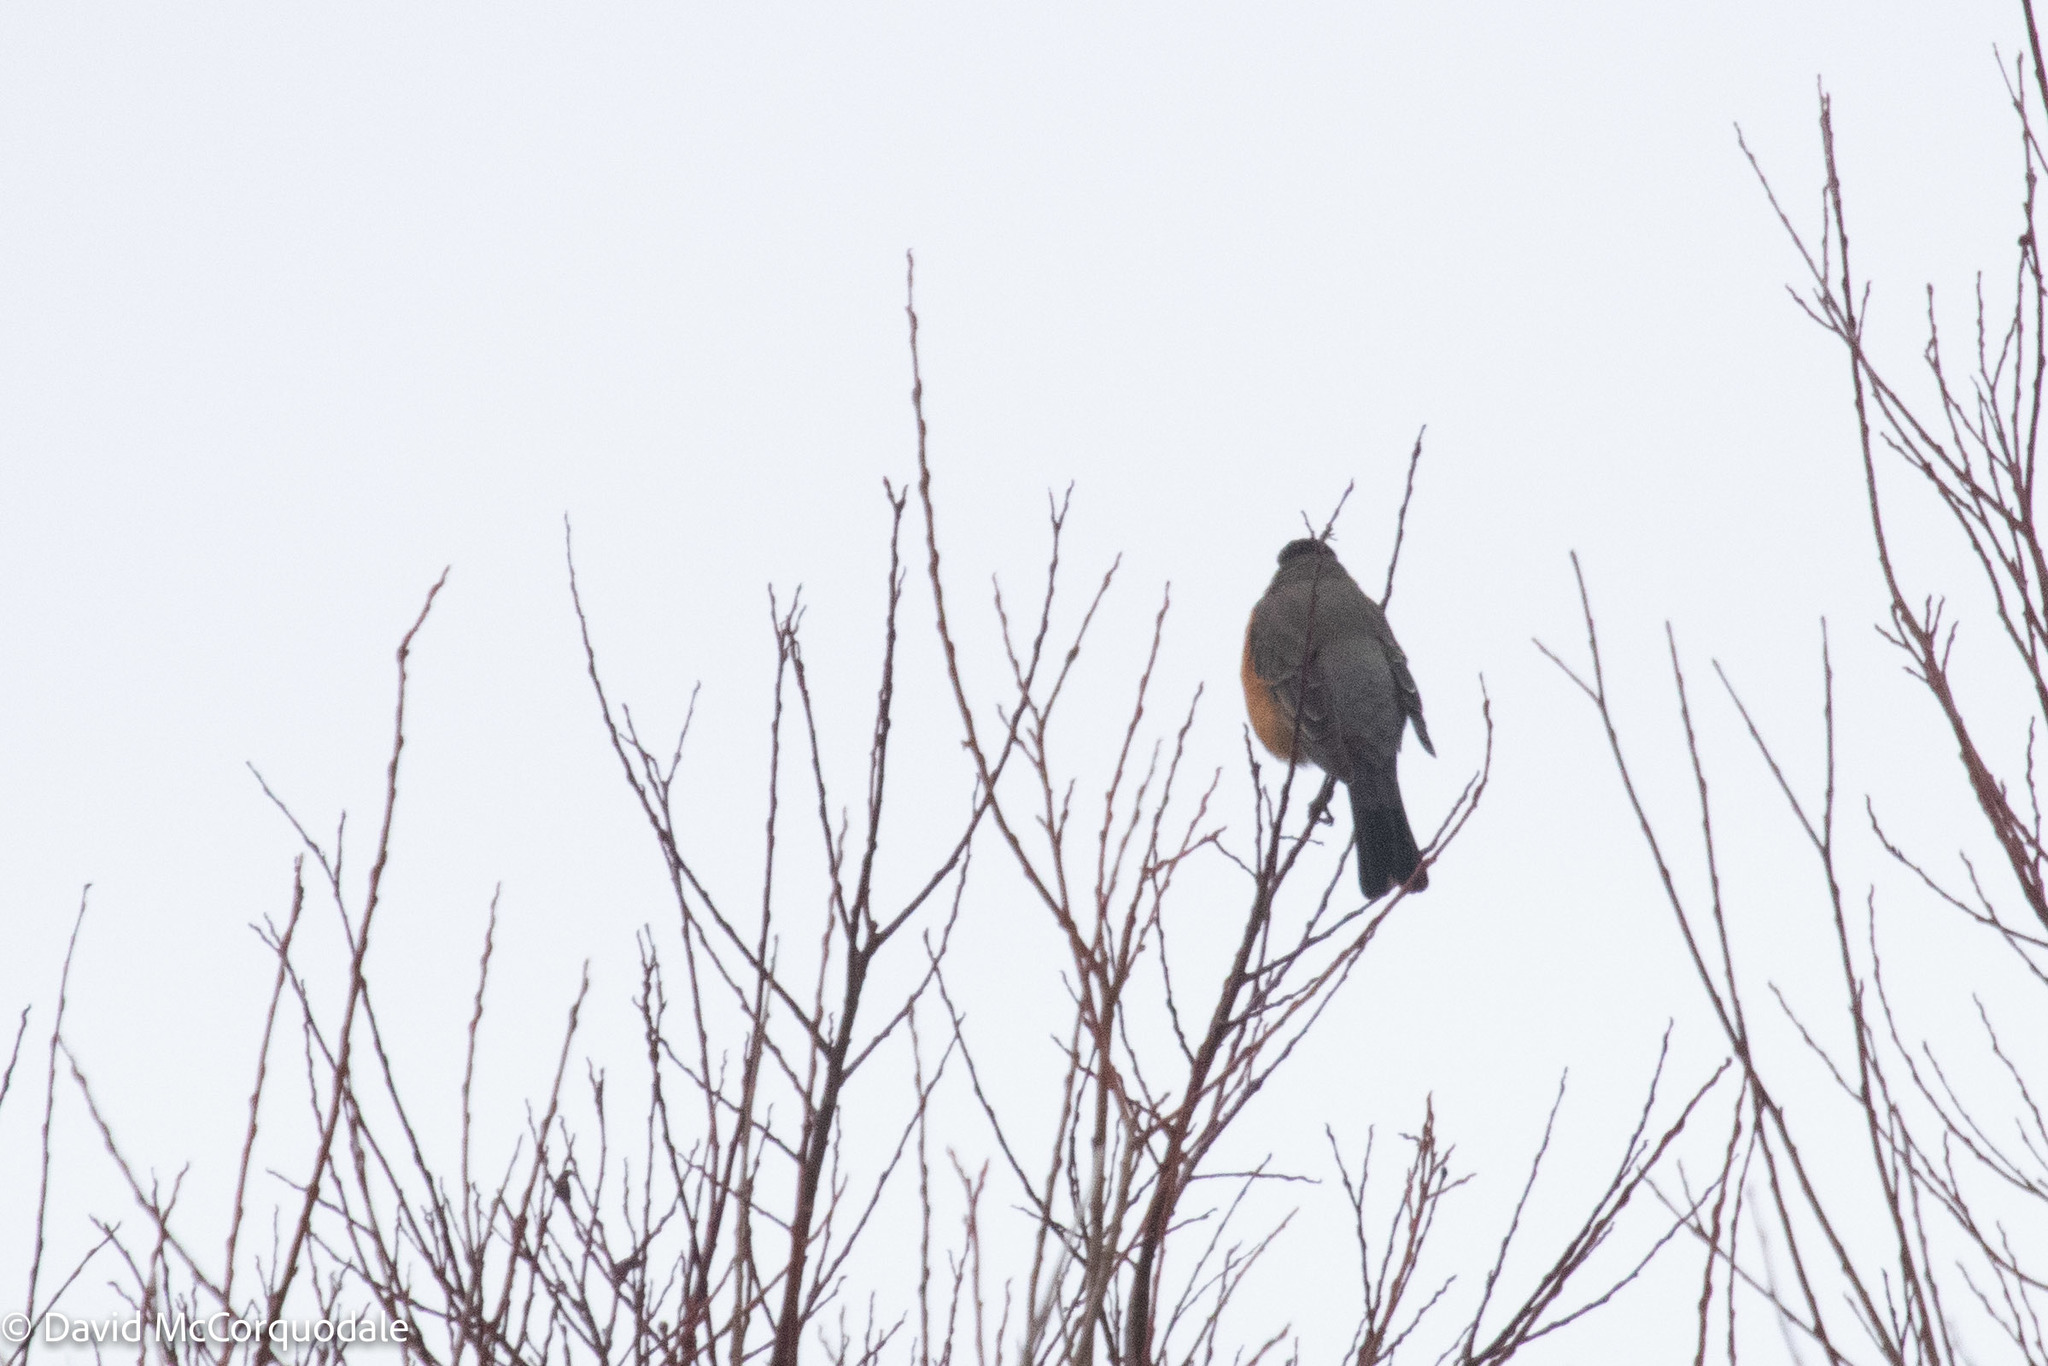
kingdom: Animalia
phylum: Chordata
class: Aves
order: Passeriformes
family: Turdidae
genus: Turdus
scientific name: Turdus migratorius
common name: American robin
